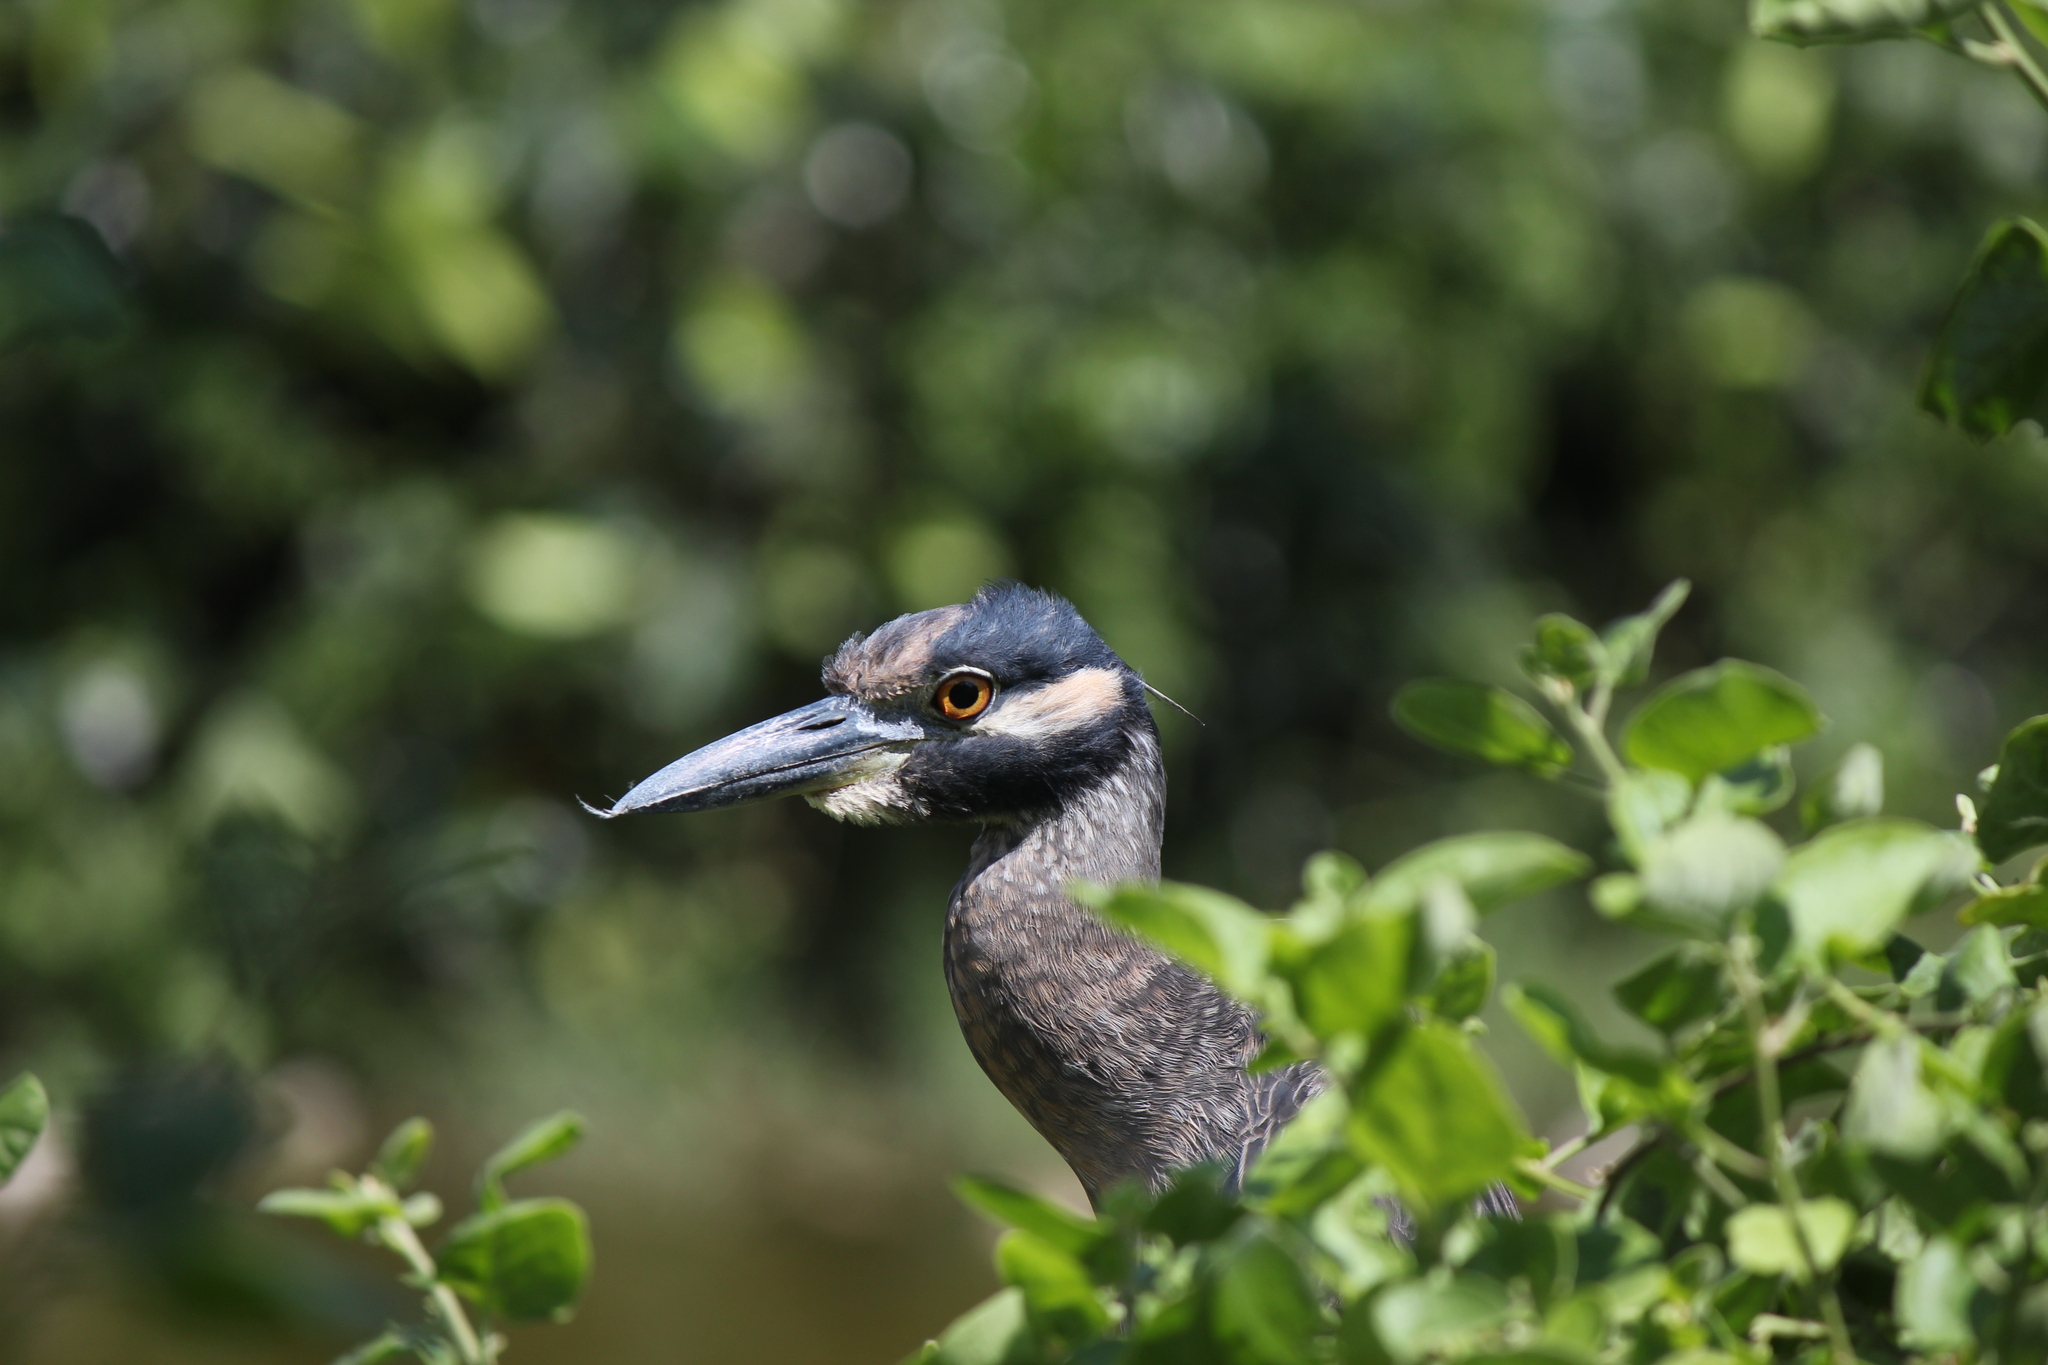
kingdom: Animalia
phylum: Chordata
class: Aves
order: Pelecaniformes
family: Ardeidae
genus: Nyctanassa
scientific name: Nyctanassa violacea
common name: Yellow-crowned night heron
